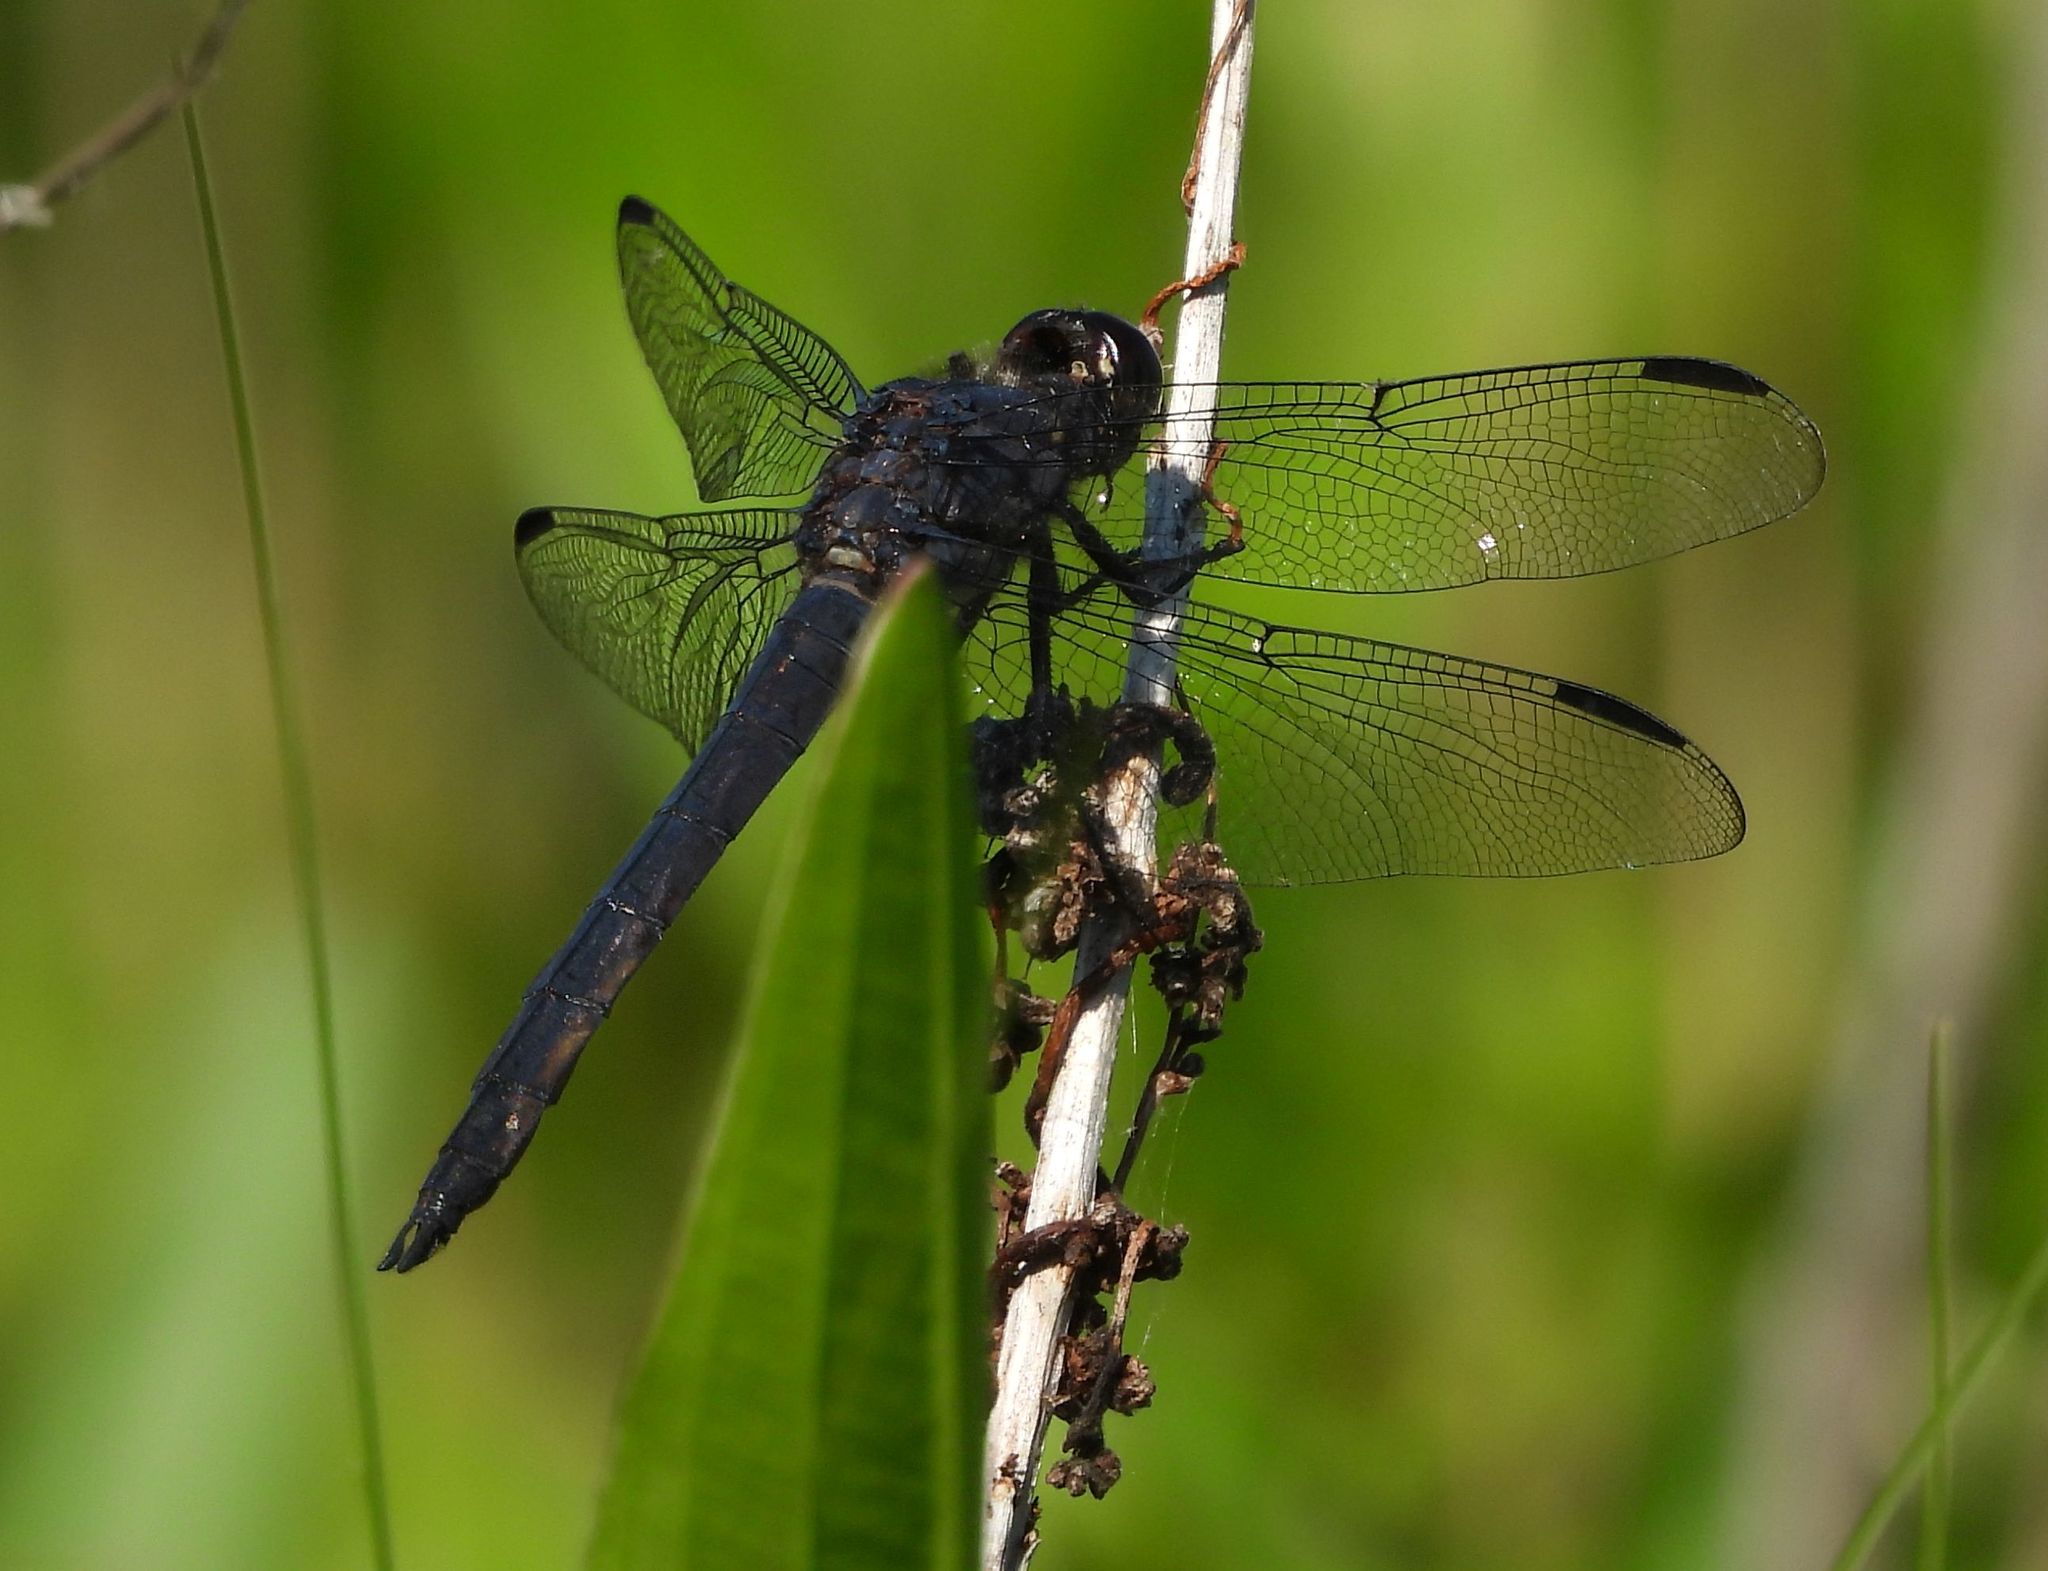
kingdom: Animalia
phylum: Arthropoda
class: Insecta
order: Odonata
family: Libellulidae
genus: Libellula
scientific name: Libellula incesta
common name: Slaty skimmer
